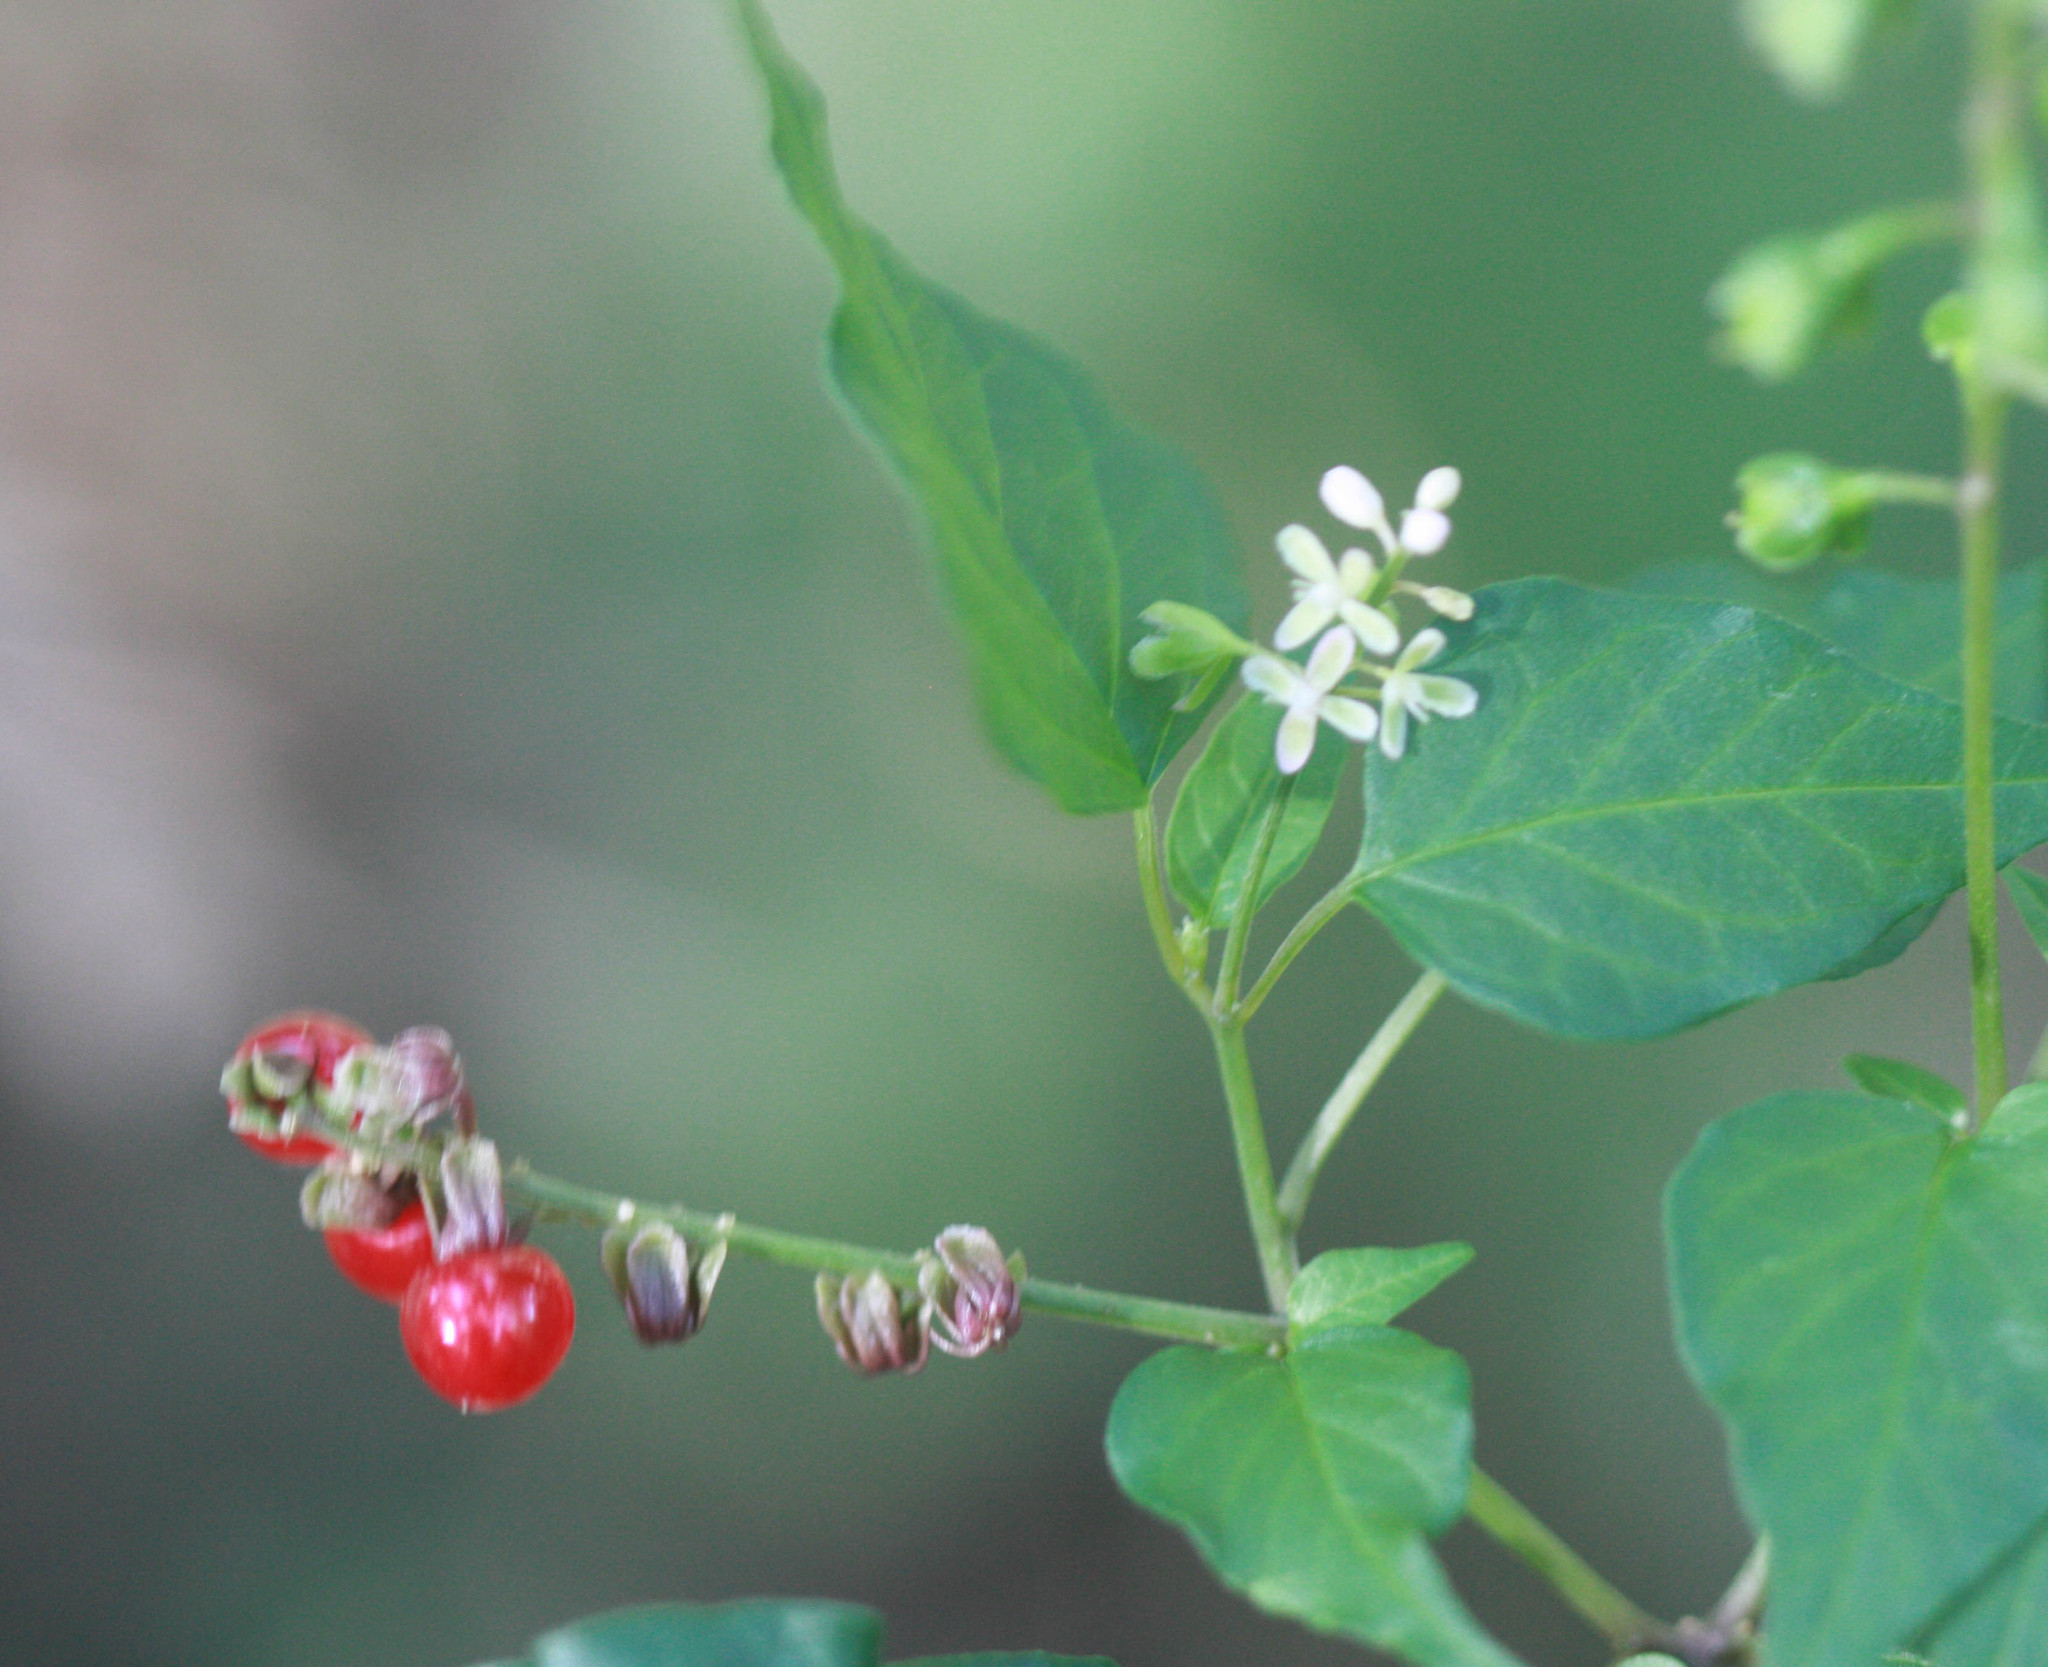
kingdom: Plantae
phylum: Tracheophyta
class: Magnoliopsida
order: Caryophyllales
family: Phytolaccaceae
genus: Rivina
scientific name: Rivina humilis
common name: Rougeplant
